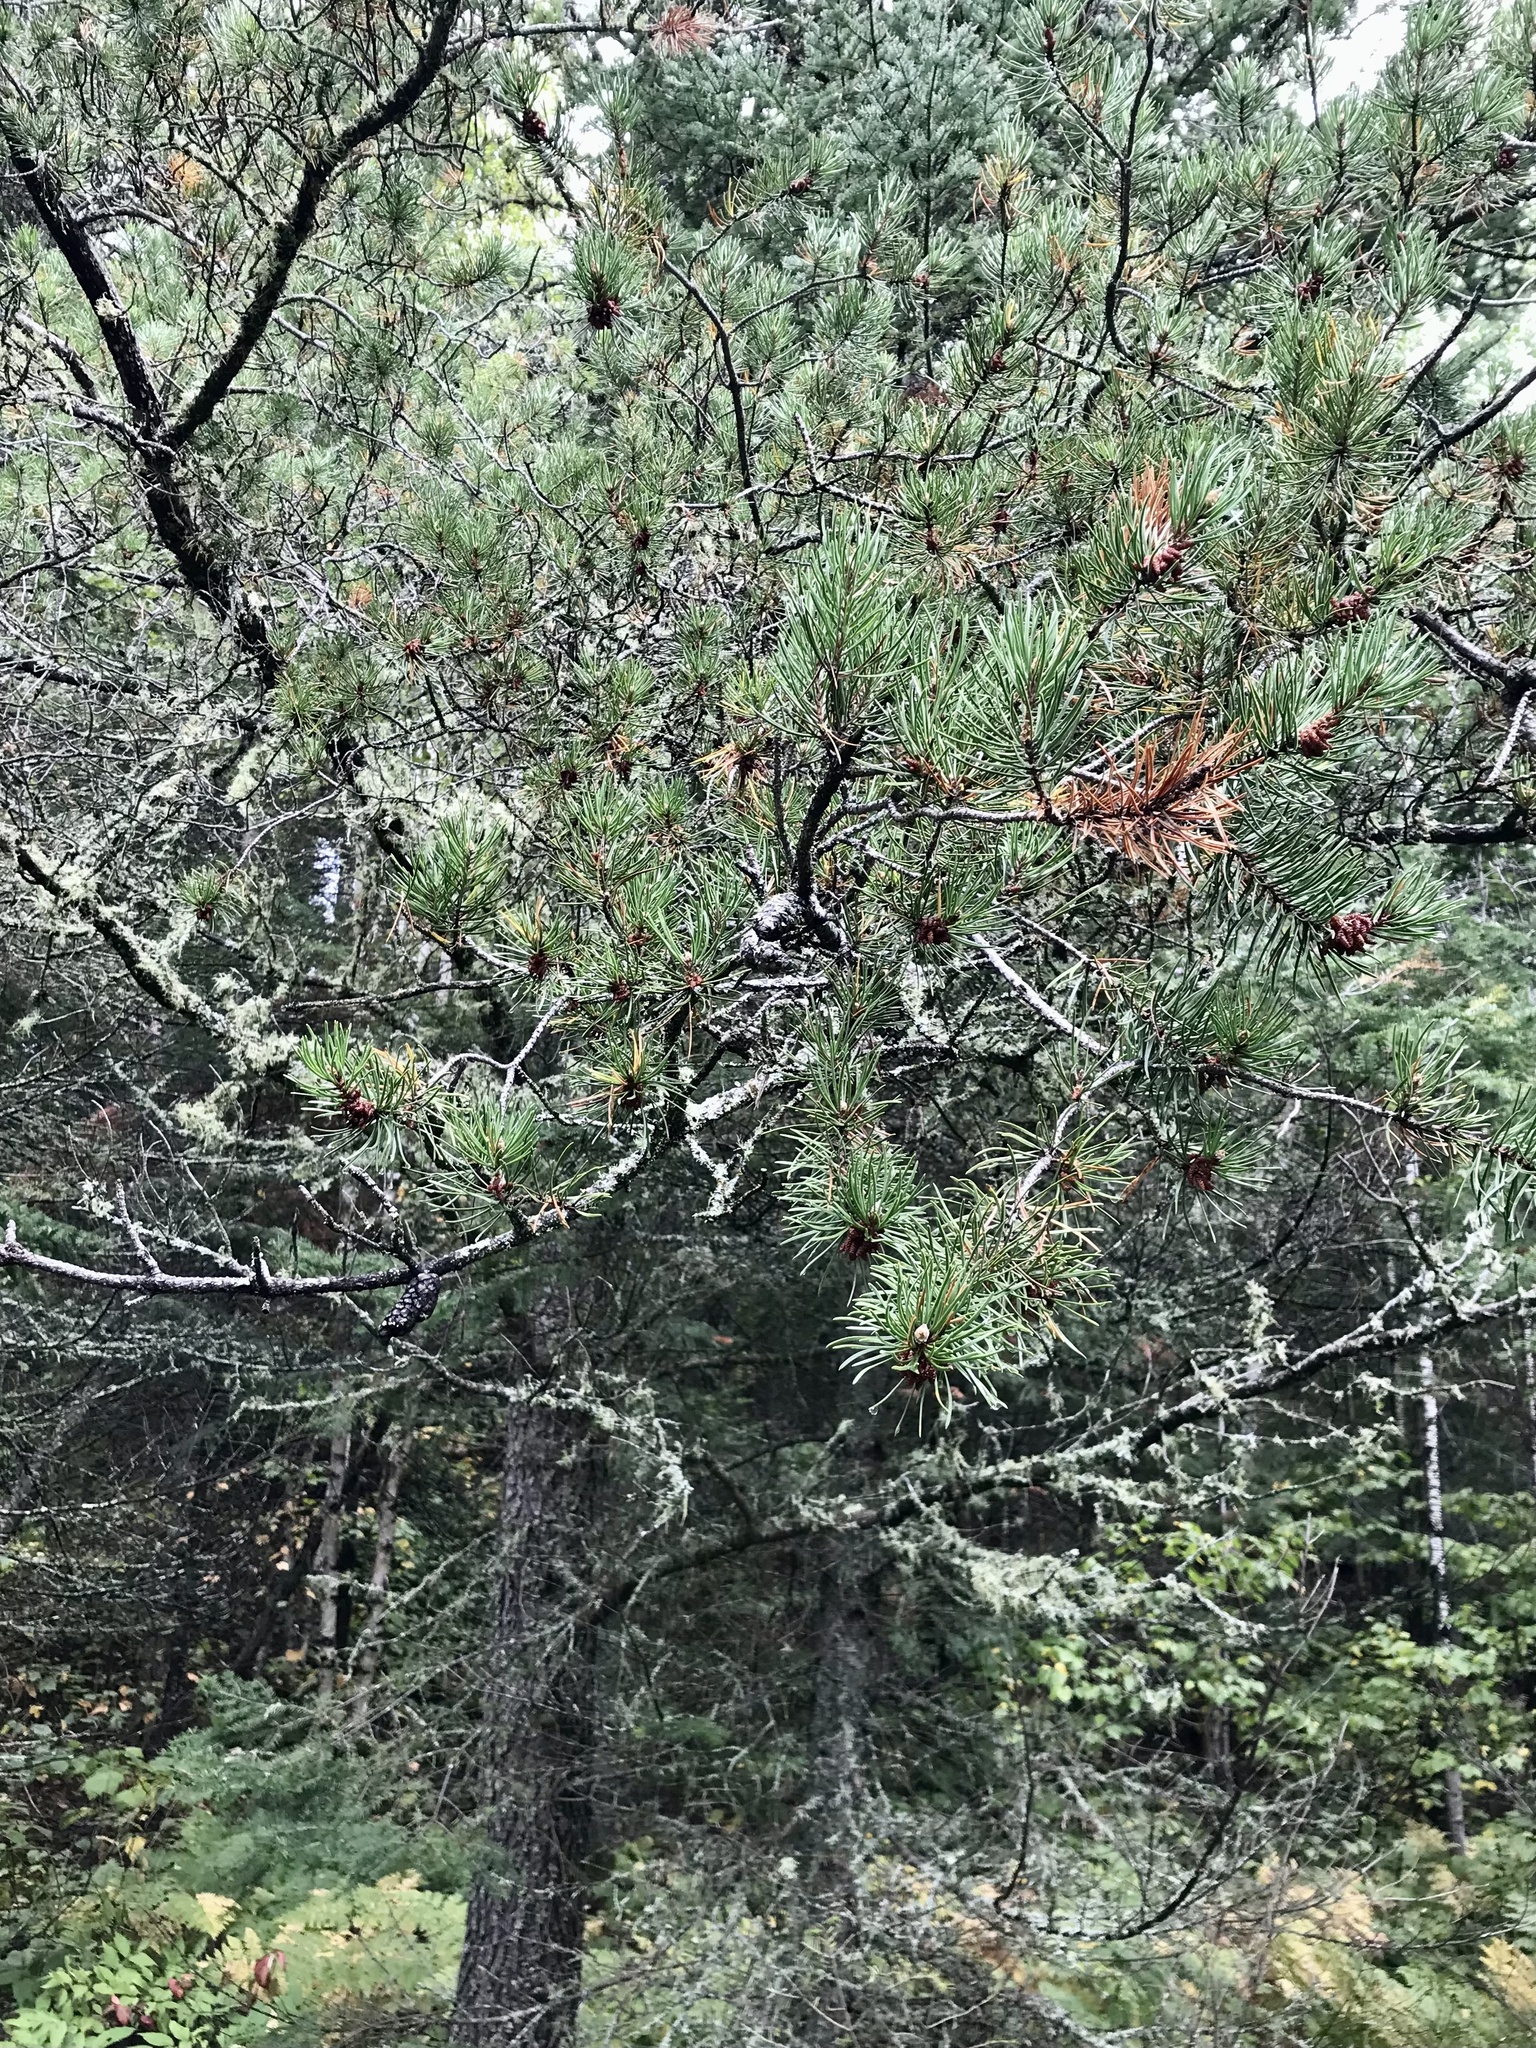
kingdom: Plantae
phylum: Tracheophyta
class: Pinopsida
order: Pinales
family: Pinaceae
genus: Pinus
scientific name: Pinus banksiana
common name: Jack pine
